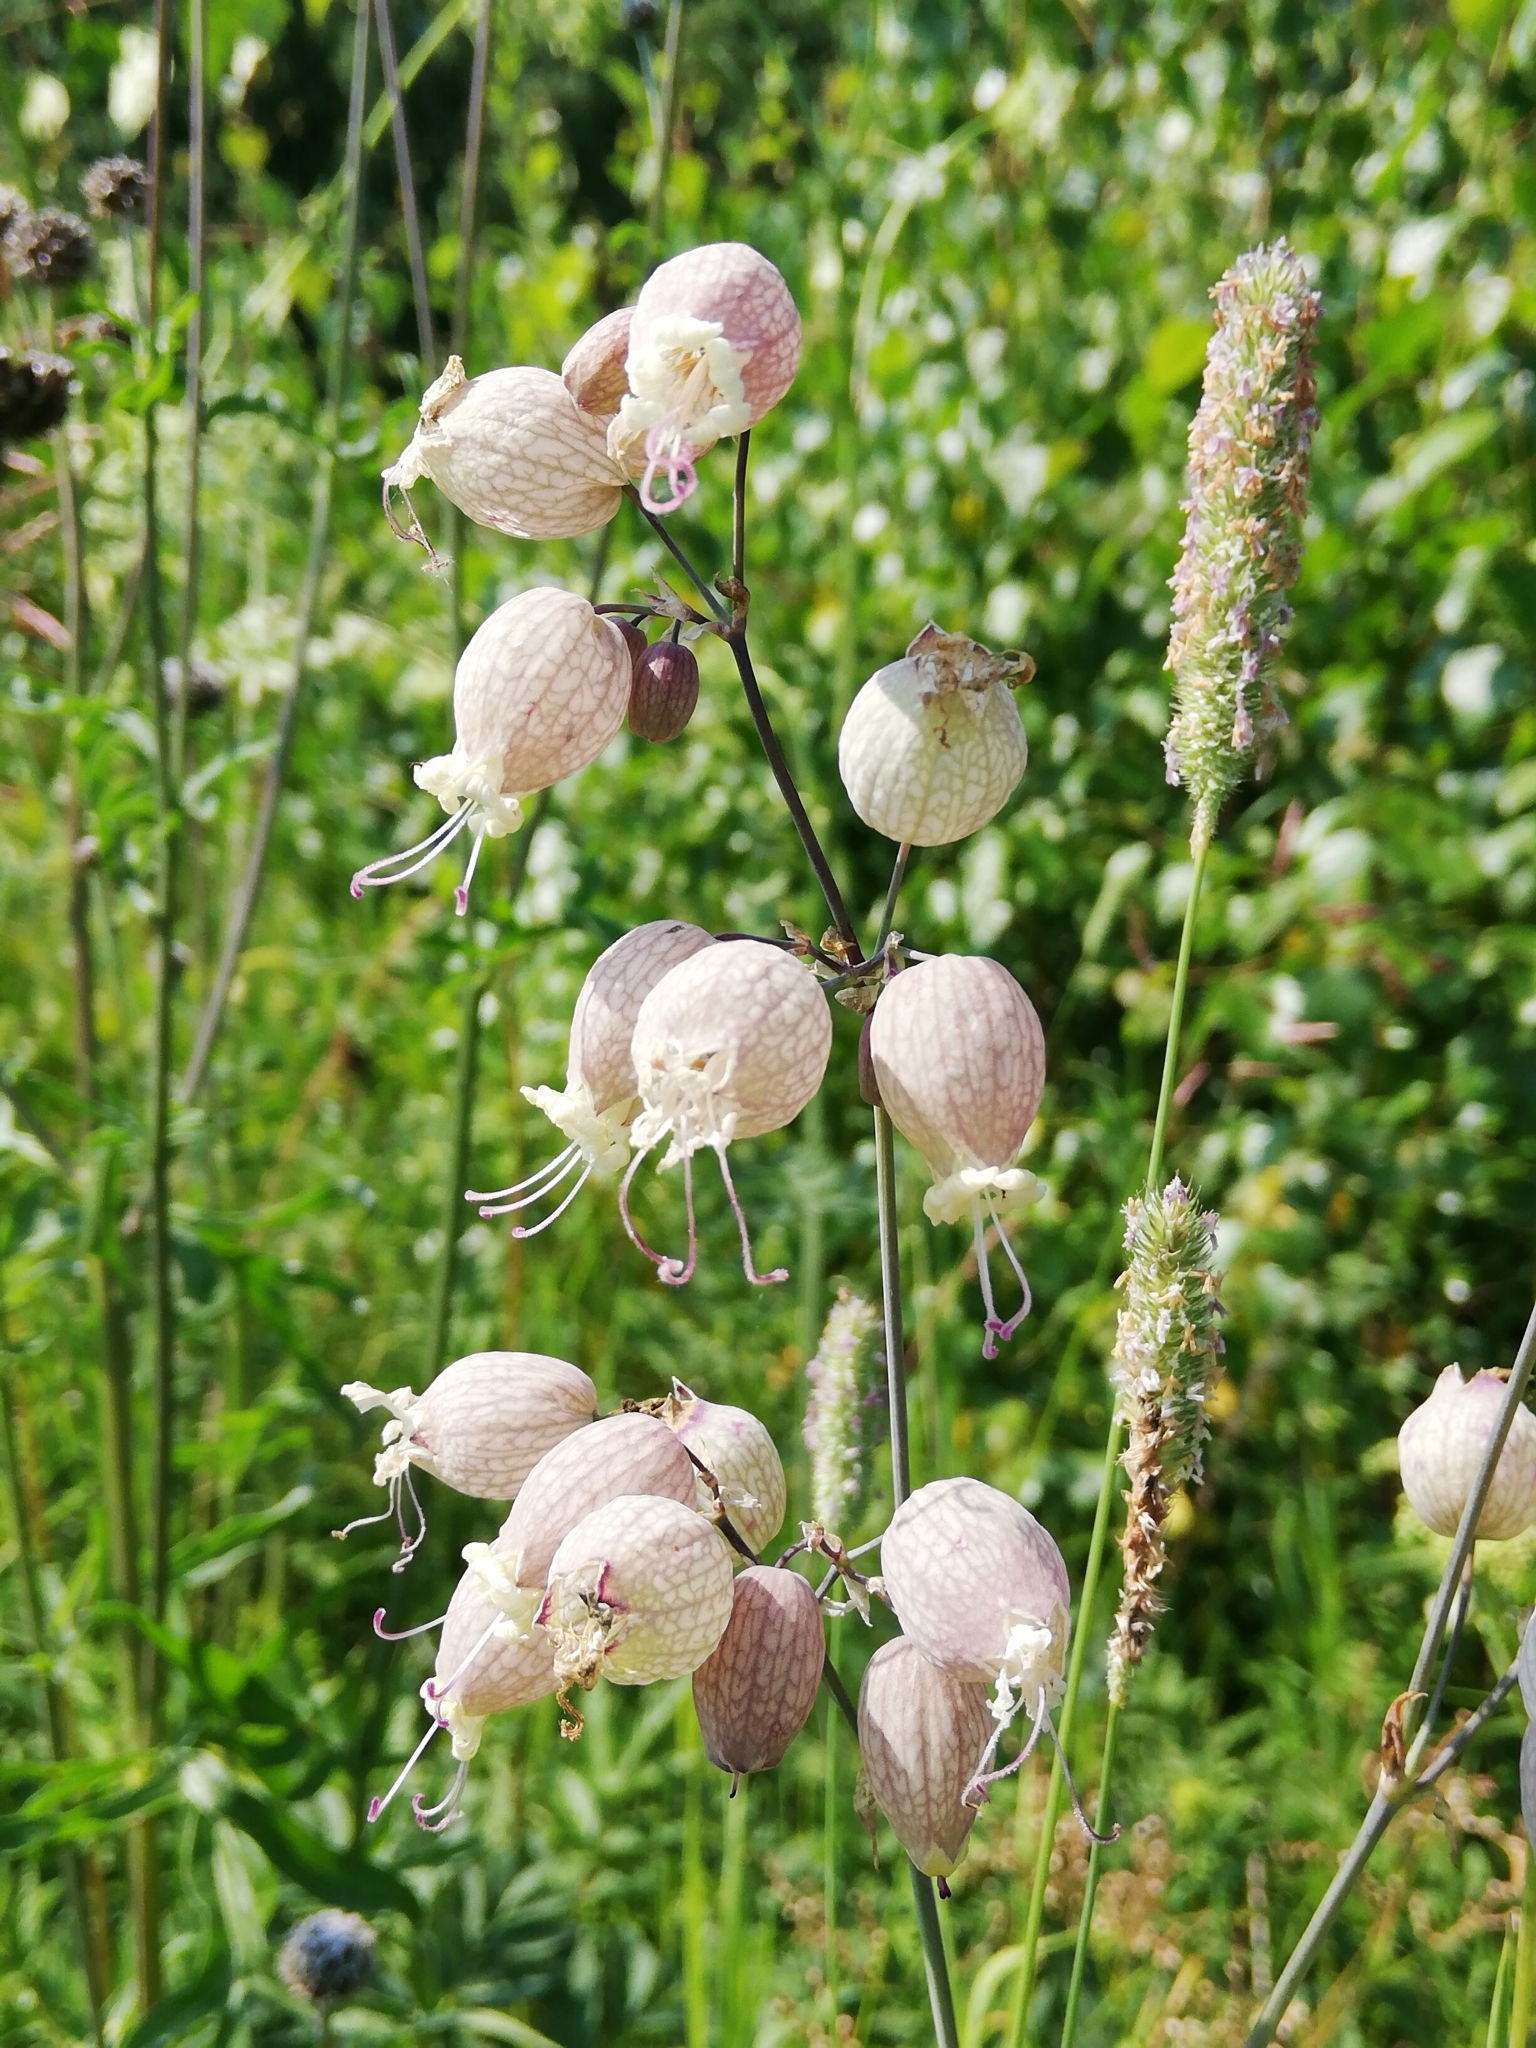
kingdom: Plantae
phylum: Tracheophyta
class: Magnoliopsida
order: Caryophyllales
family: Caryophyllaceae
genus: Silene
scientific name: Silene vulgaris
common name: Bladder campion
